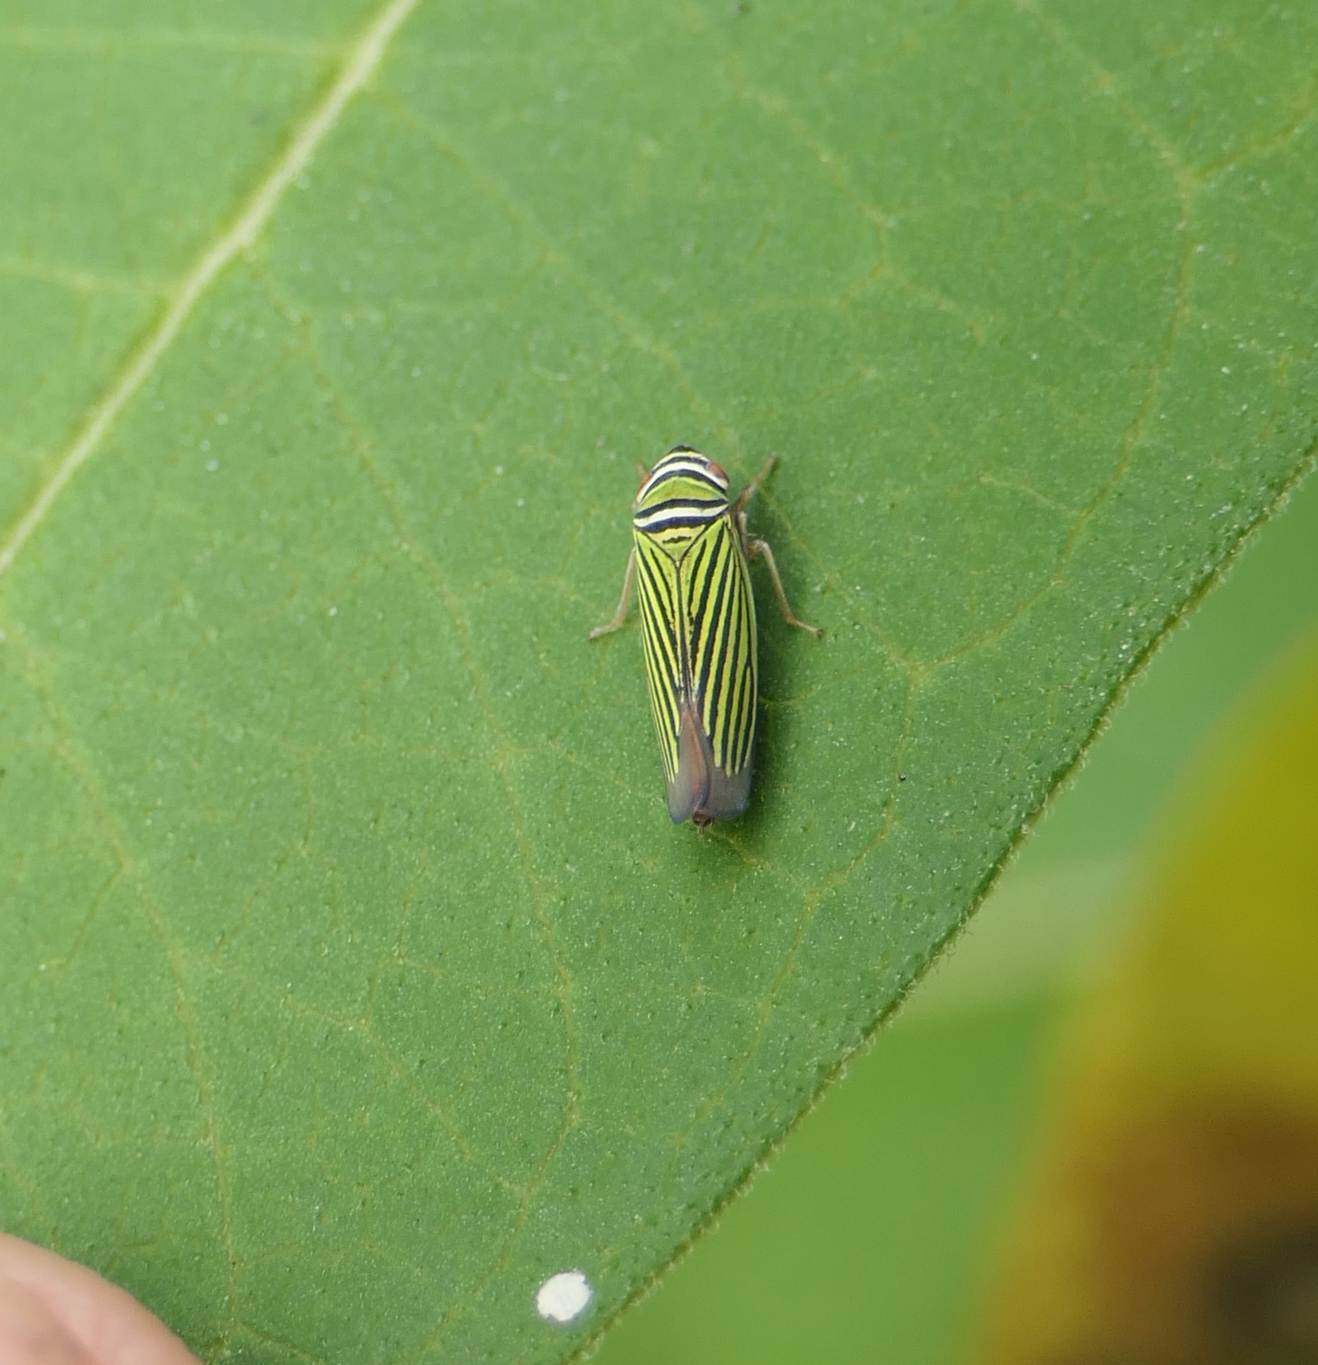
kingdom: Animalia
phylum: Arthropoda
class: Insecta
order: Hemiptera
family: Cicadellidae
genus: Tylozygus
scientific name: Tylozygus bifidus
